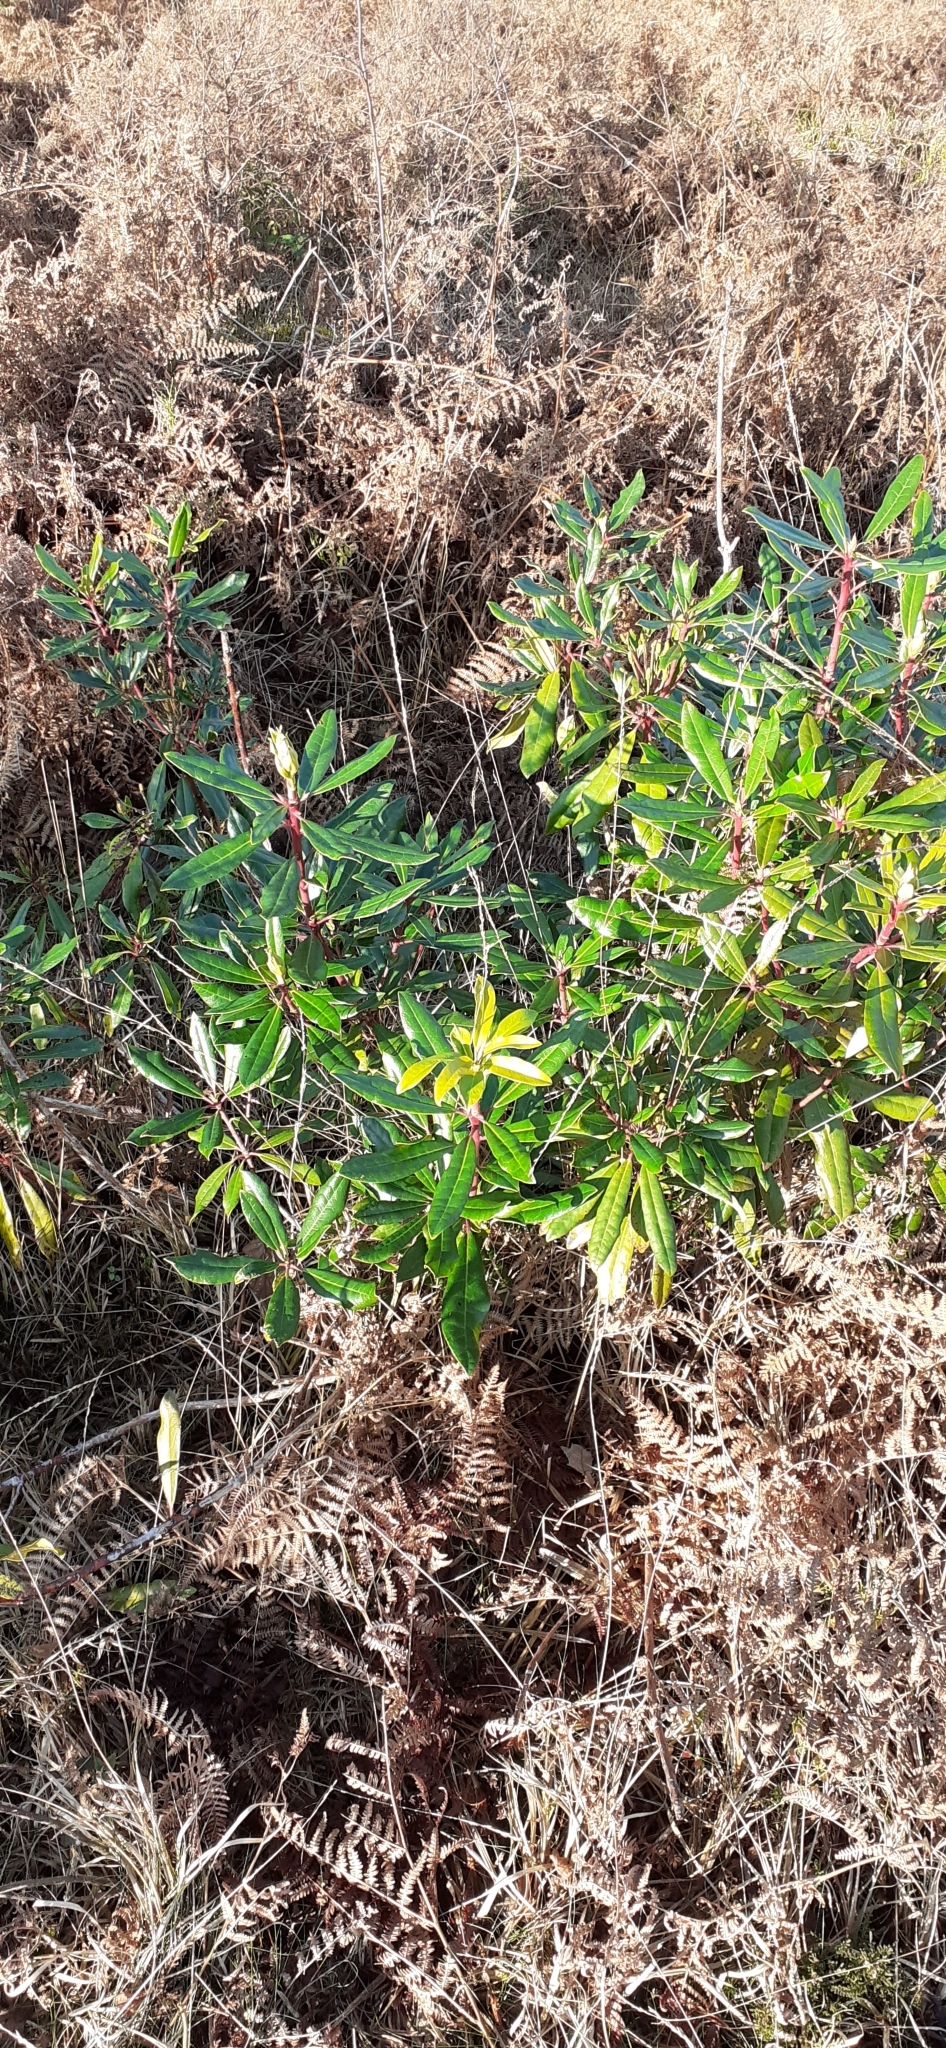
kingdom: Plantae
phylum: Tracheophyta
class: Magnoliopsida
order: Ericales
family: Ericaceae
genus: Rhododendron
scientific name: Rhododendron ponticum
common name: Rhododendron
